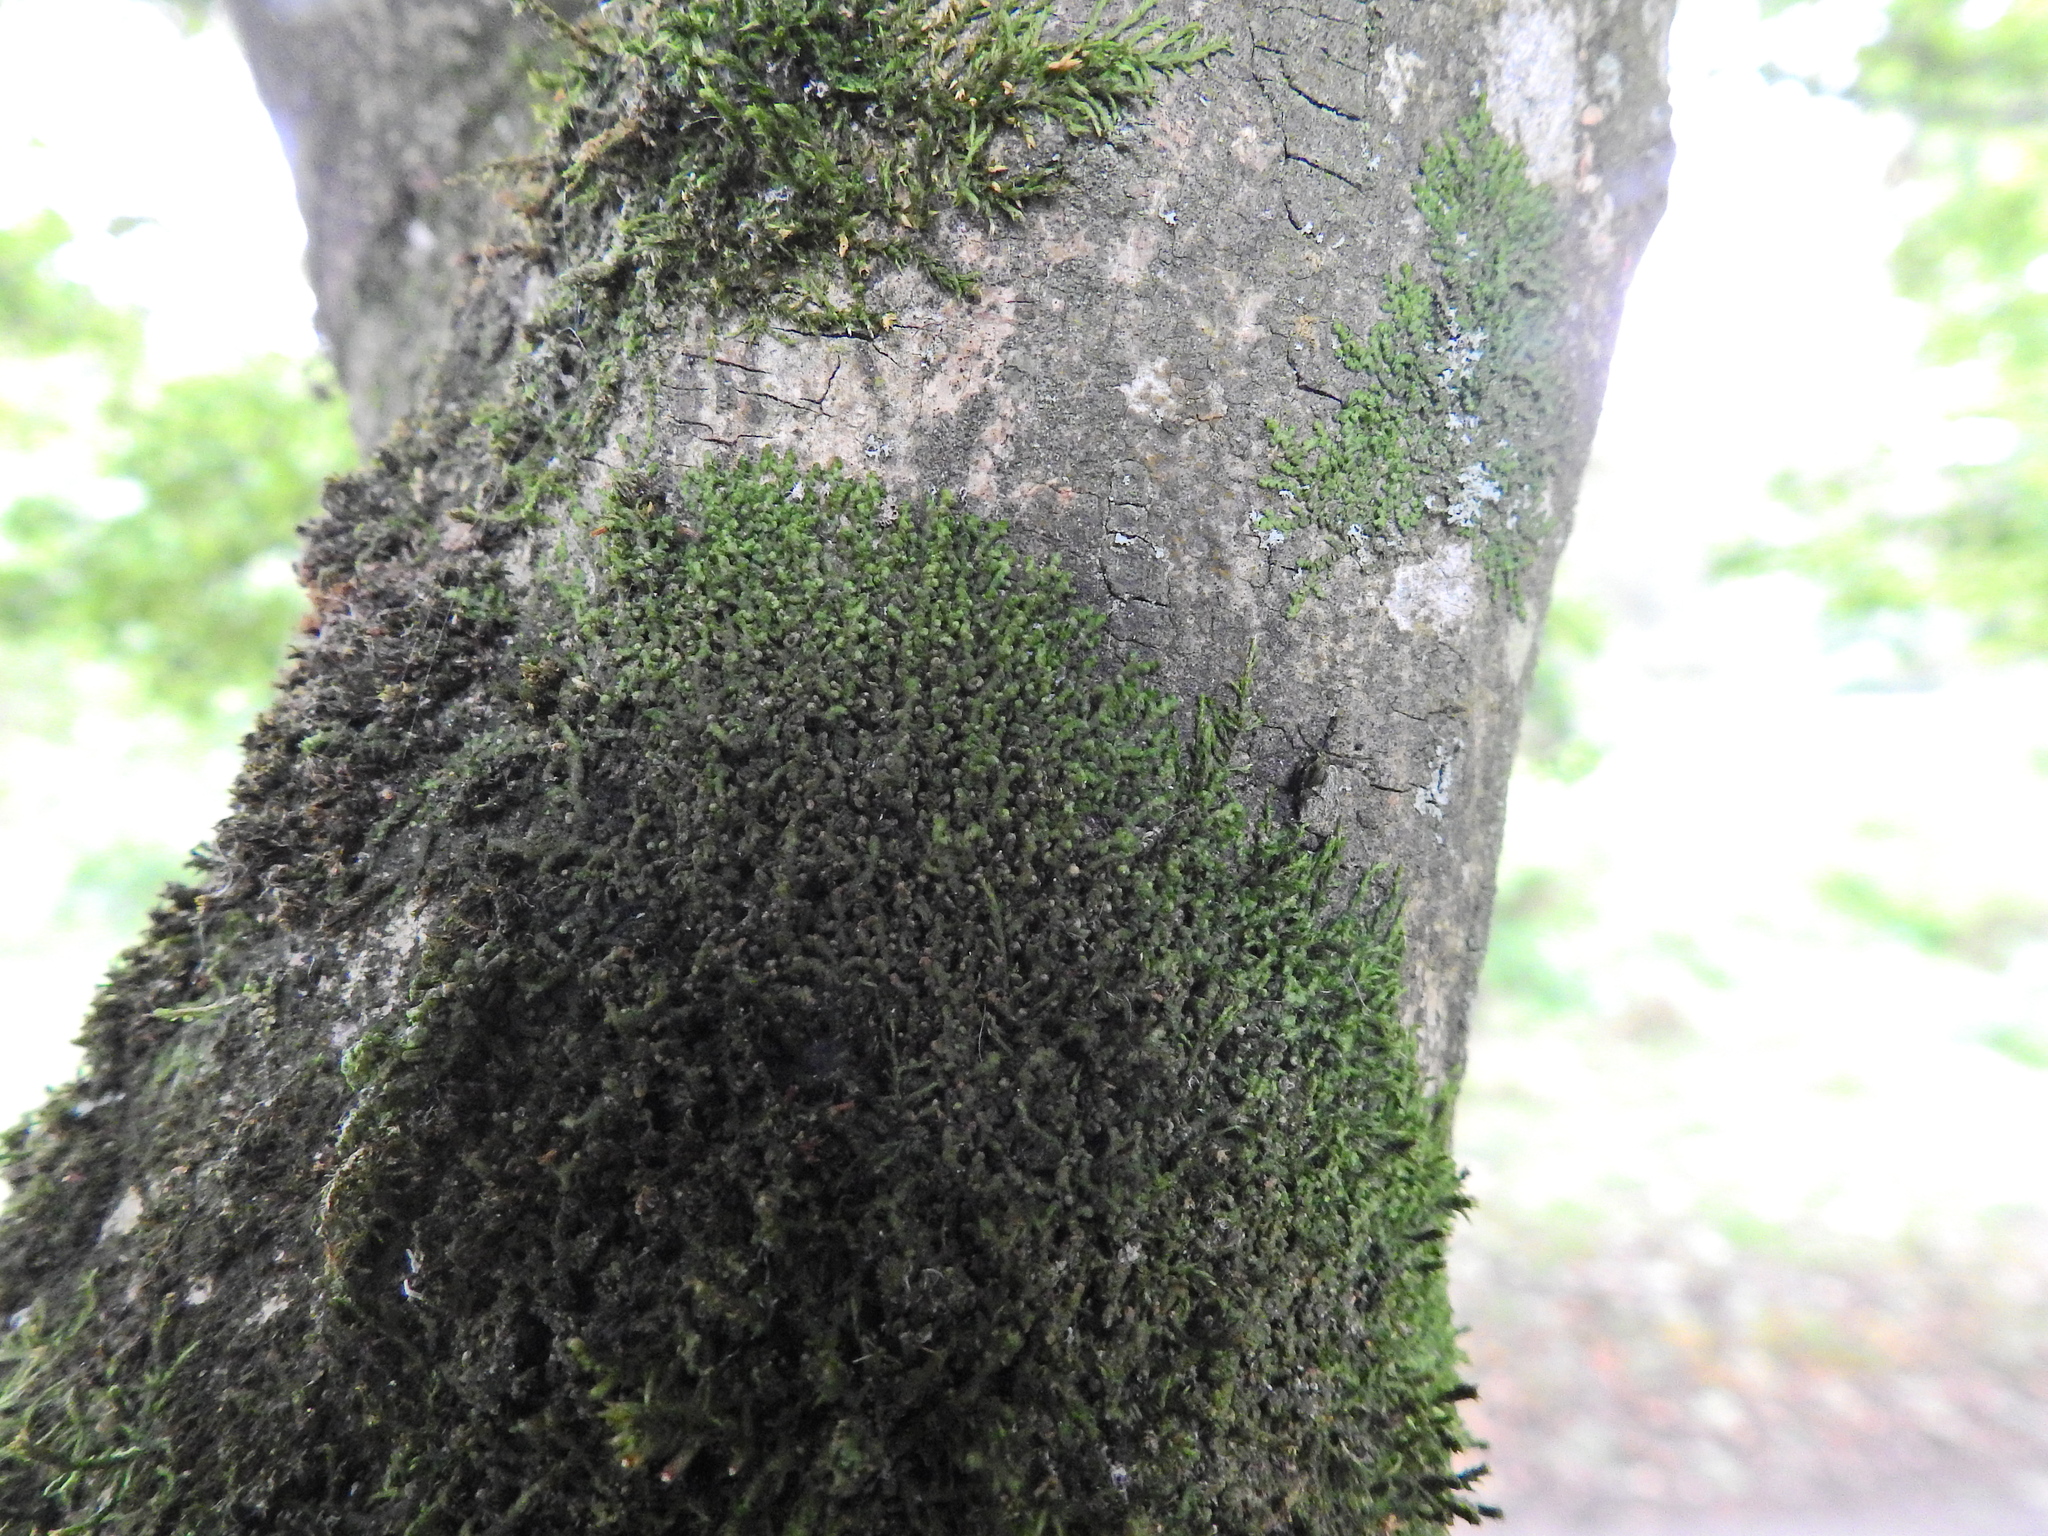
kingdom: Plantae
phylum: Marchantiophyta
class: Jungermanniopsida
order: Porellales
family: Frullaniaceae
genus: Frullania
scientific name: Frullania dilatata
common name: Dilated scalewort
